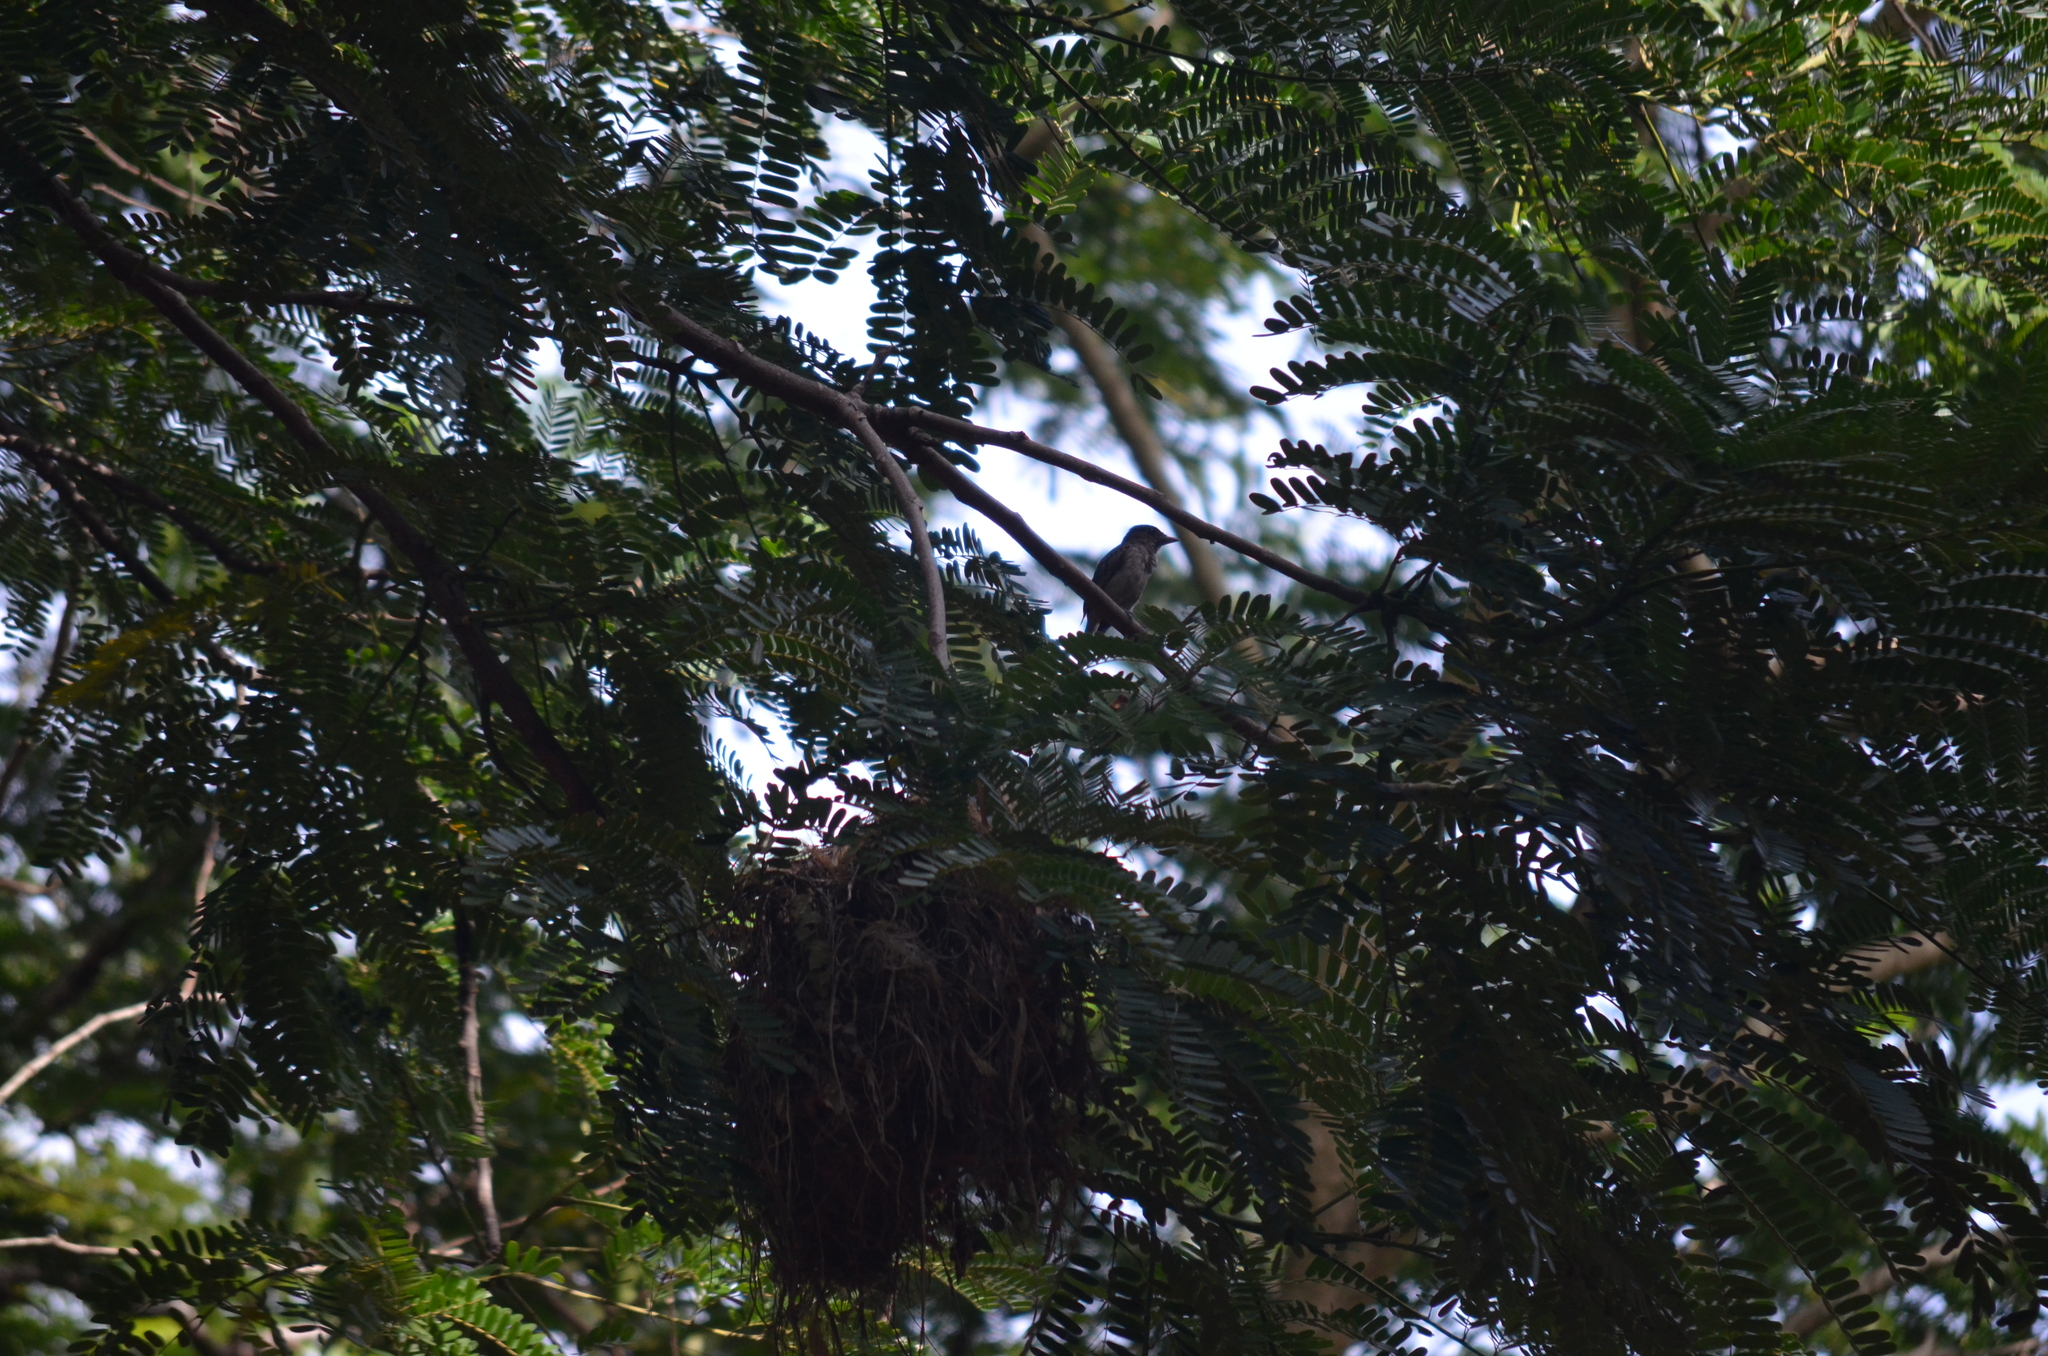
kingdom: Animalia
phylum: Chordata
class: Aves
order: Passeriformes
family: Cotingidae
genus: Pachyramphus
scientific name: Pachyramphus aglaiae
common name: Rose-throated becard
